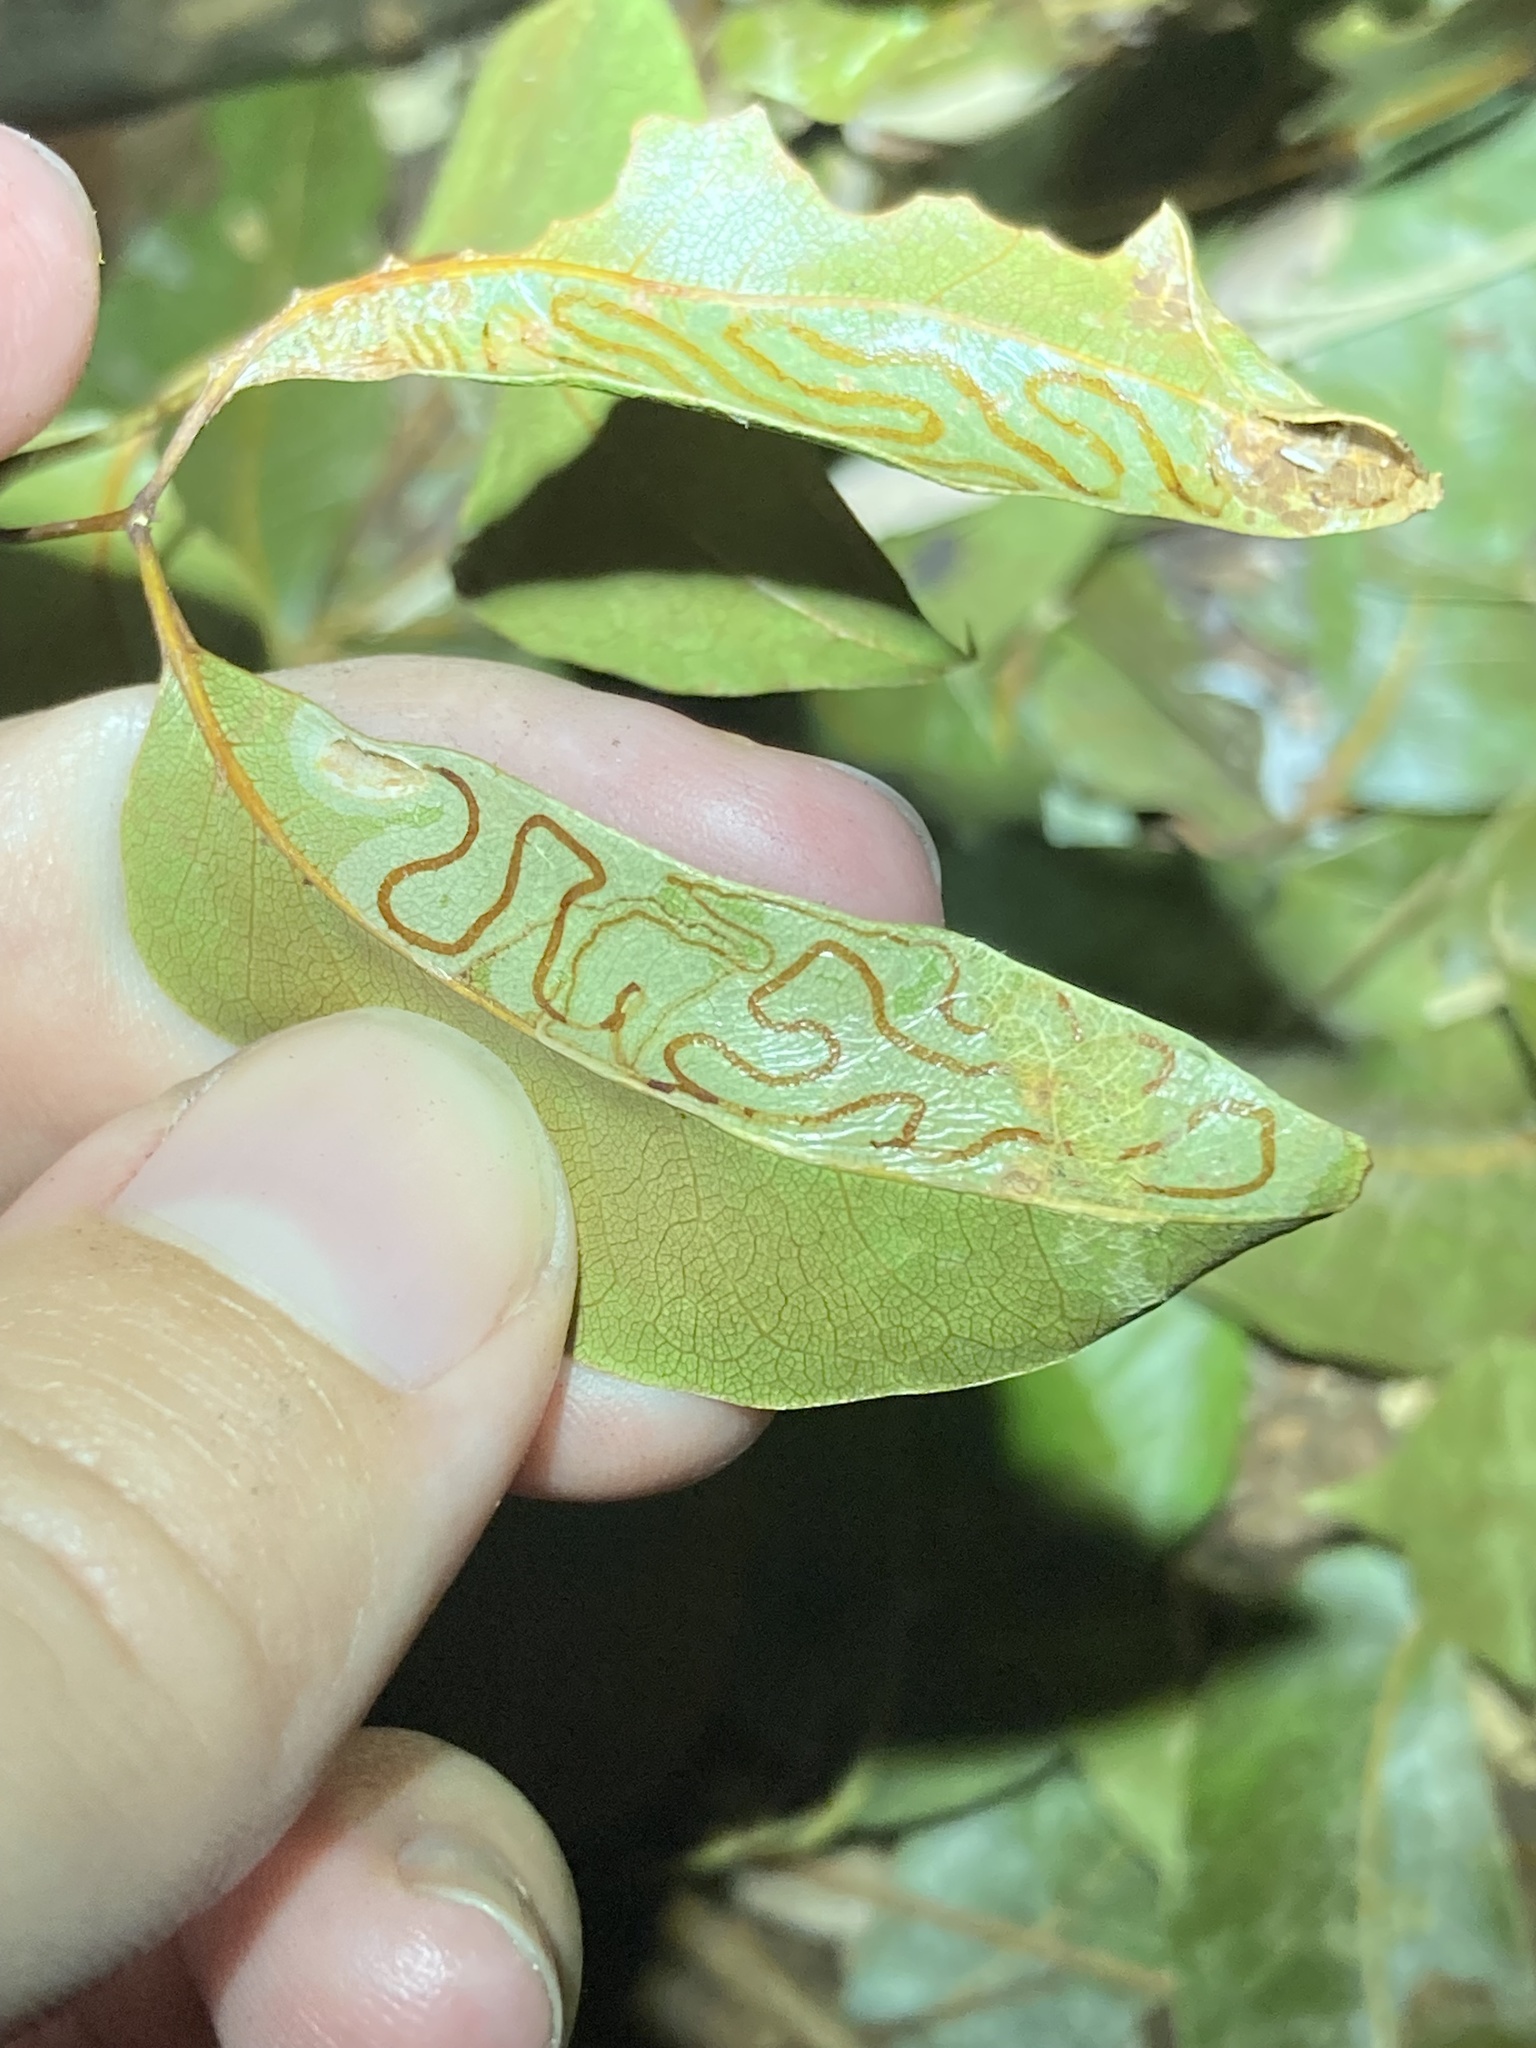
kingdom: Animalia
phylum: Arthropoda
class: Insecta
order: Lepidoptera
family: Gracillariidae
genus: Phyllocnistis
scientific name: Phyllocnistis meliacella
